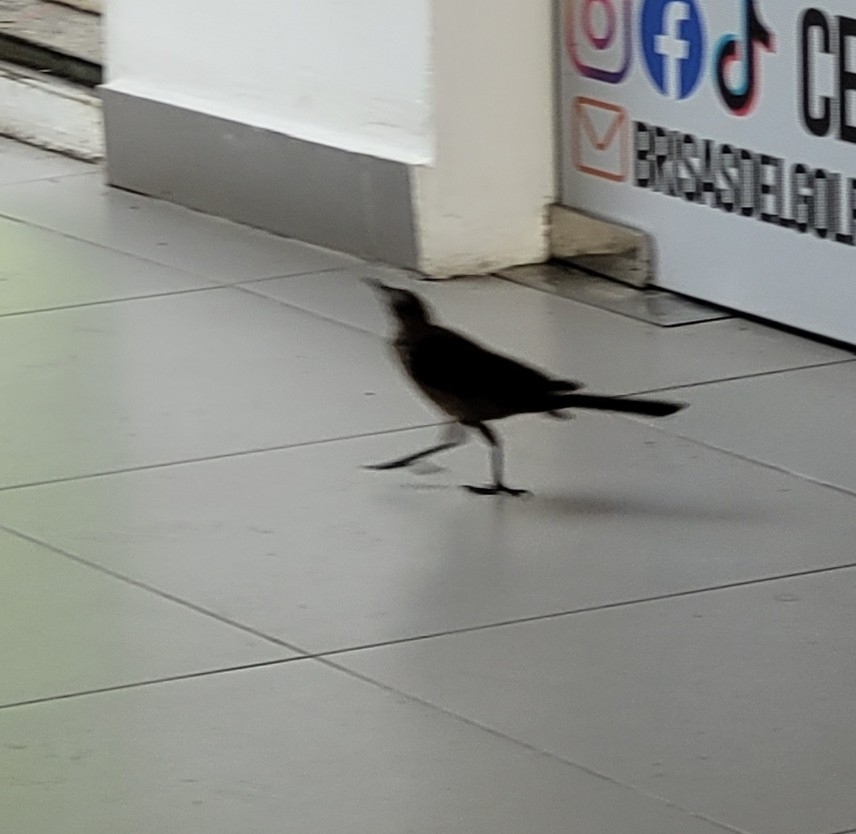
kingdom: Animalia
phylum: Chordata
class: Aves
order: Passeriformes
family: Icteridae
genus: Quiscalus
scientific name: Quiscalus mexicanus
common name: Great-tailed grackle
